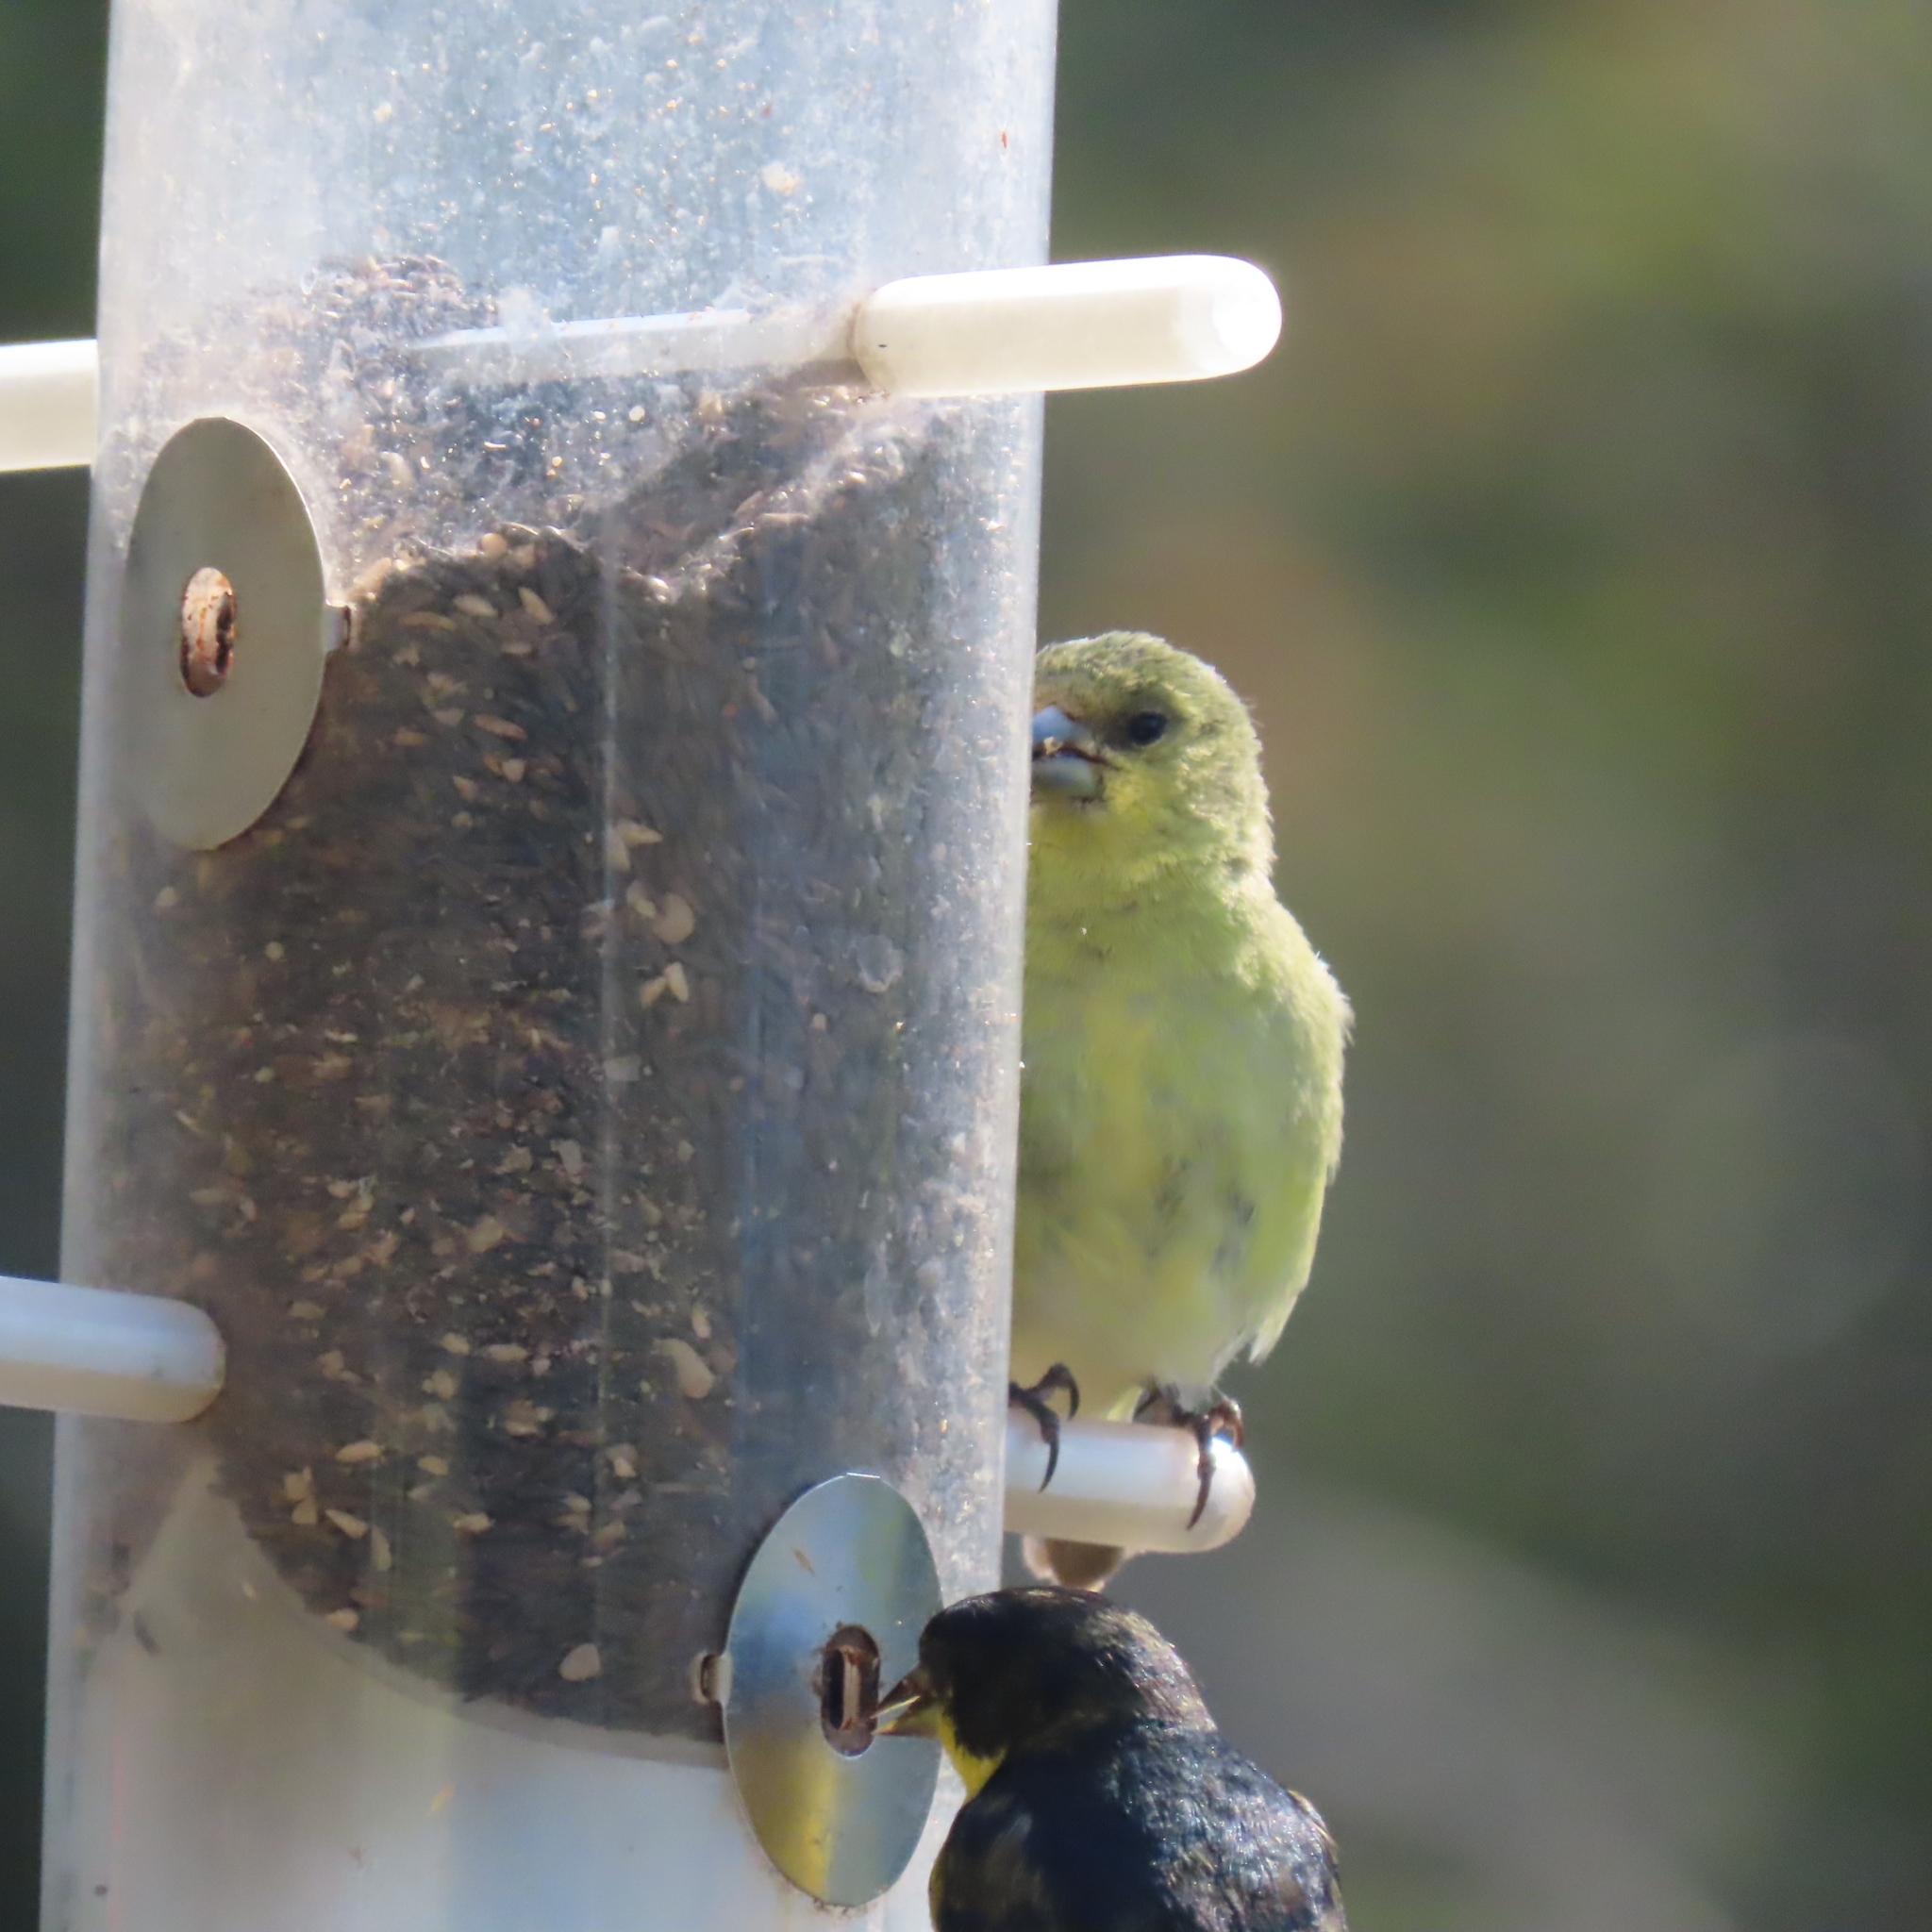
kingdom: Animalia
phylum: Chordata
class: Aves
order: Passeriformes
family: Fringillidae
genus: Spinus
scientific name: Spinus psaltria
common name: Lesser goldfinch
